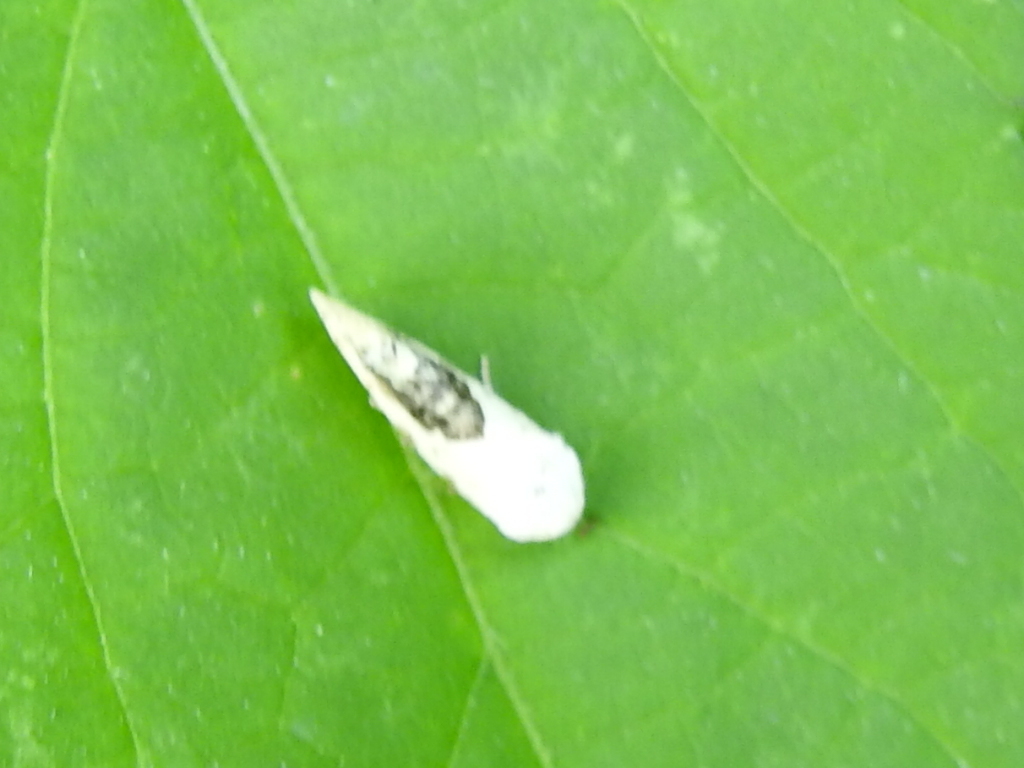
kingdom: Animalia
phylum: Arthropoda
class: Insecta
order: Lepidoptera
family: Noctuidae
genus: Acontia
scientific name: Acontia erastrioides
